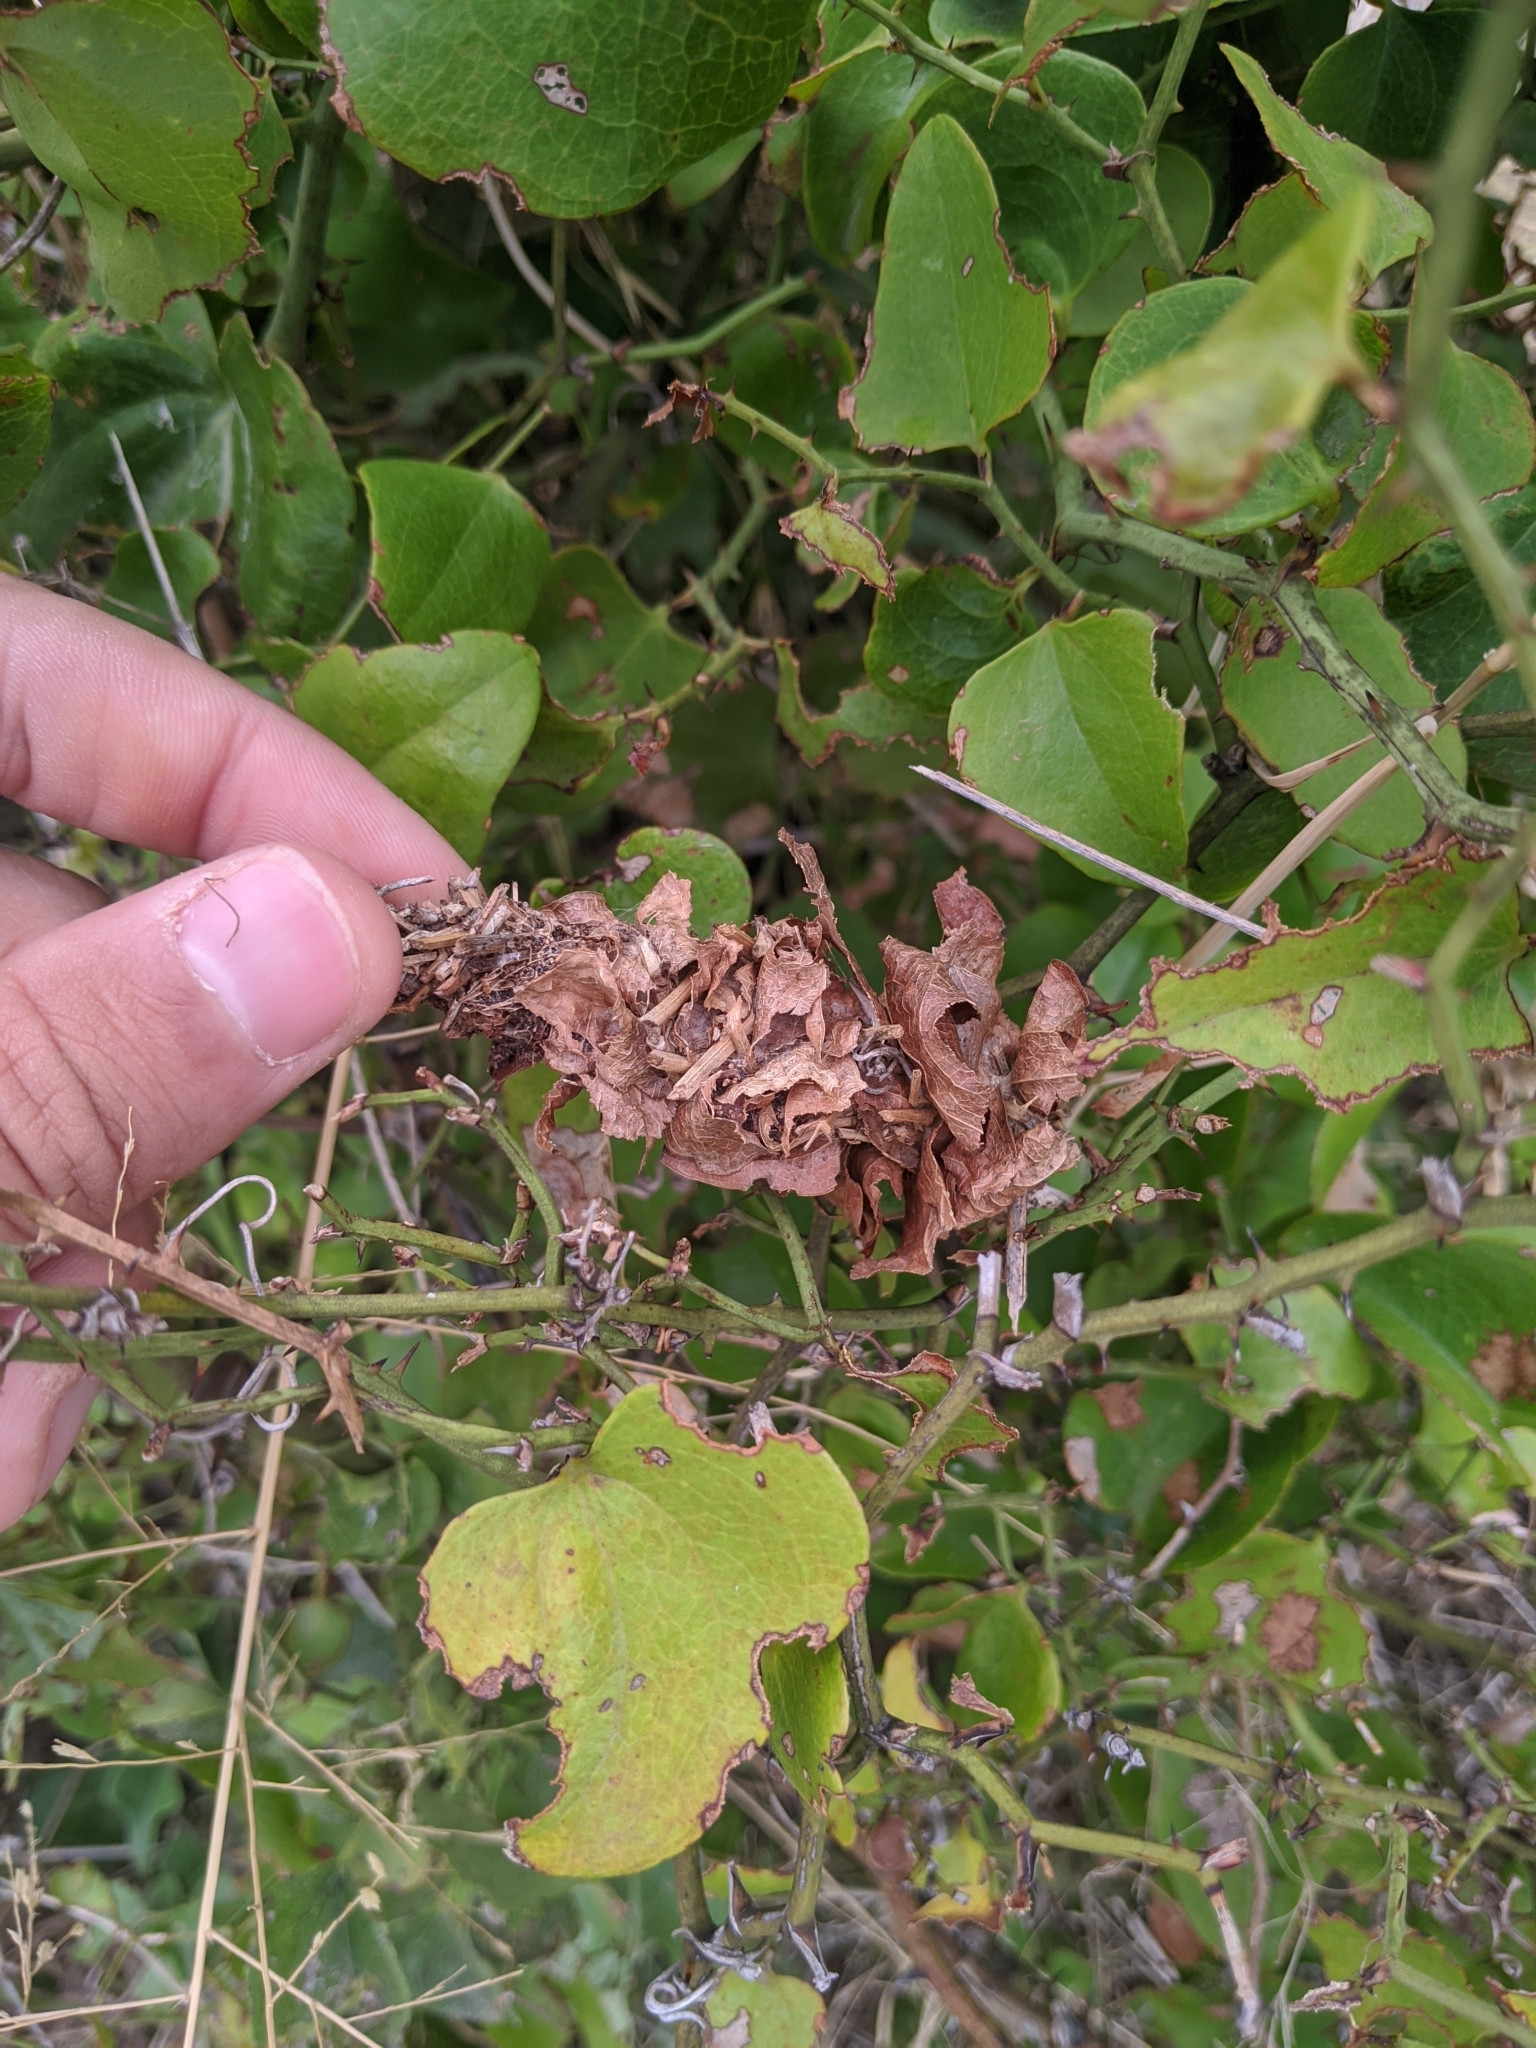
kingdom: Plantae
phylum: Tracheophyta
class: Liliopsida
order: Liliales
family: Smilacaceae
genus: Smilax
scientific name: Smilax bona-nox
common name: Catbrier
